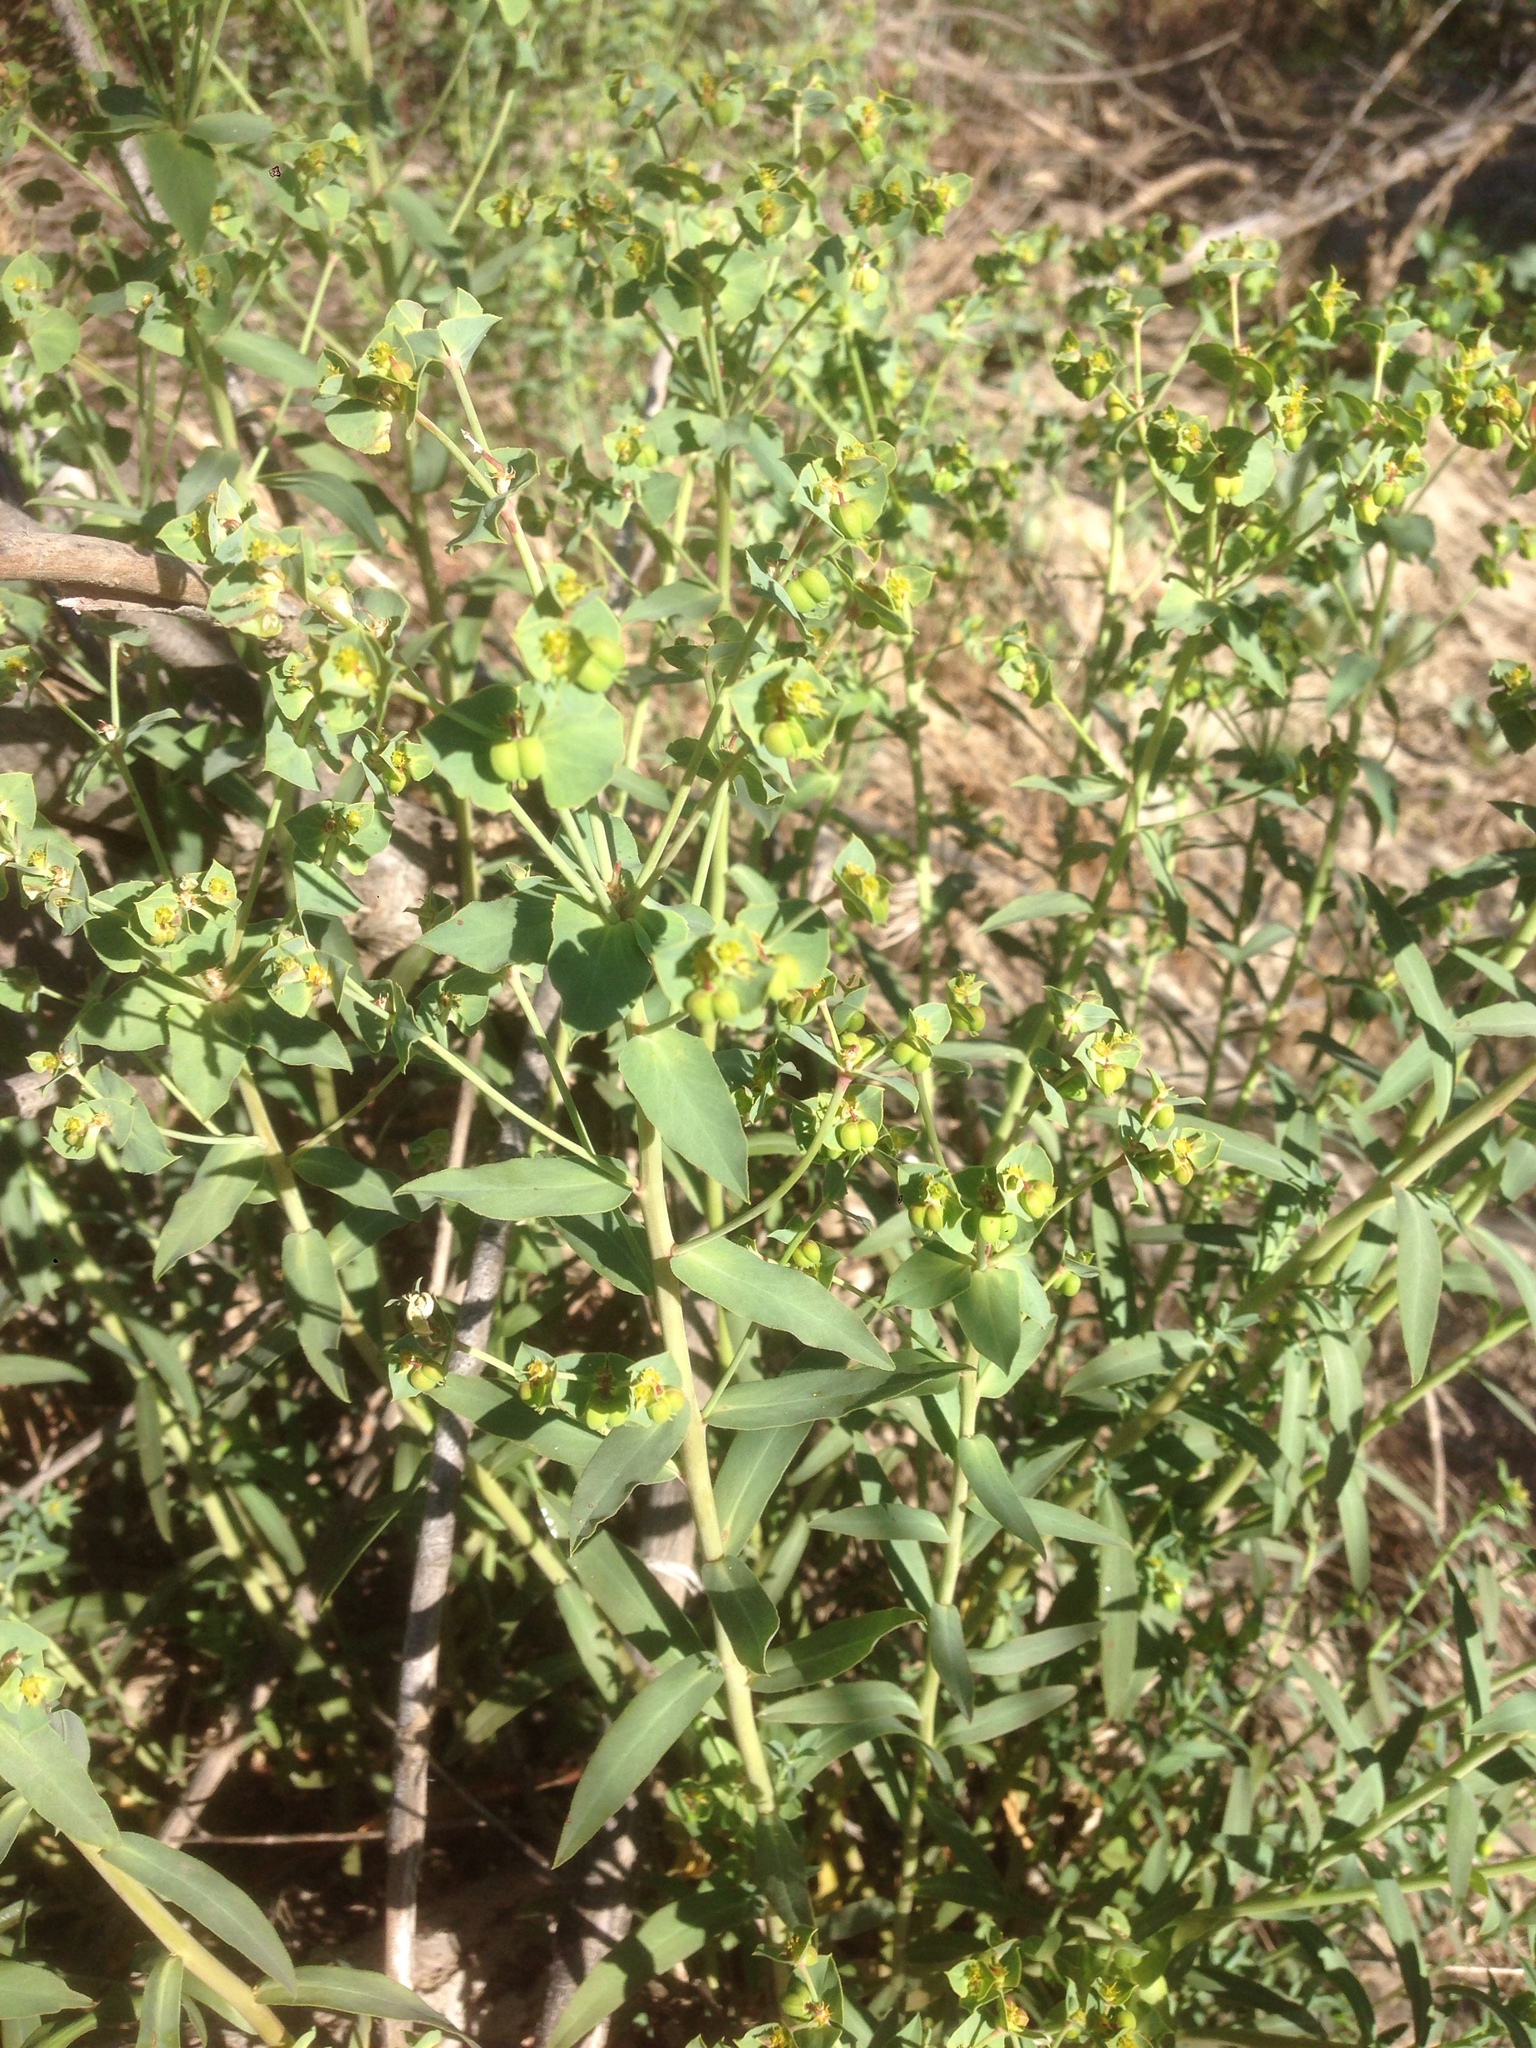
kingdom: Plantae
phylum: Tracheophyta
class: Magnoliopsida
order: Malpighiales
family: Euphorbiaceae
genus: Euphorbia
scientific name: Euphorbia terracina
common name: Geraldton carnation weed
